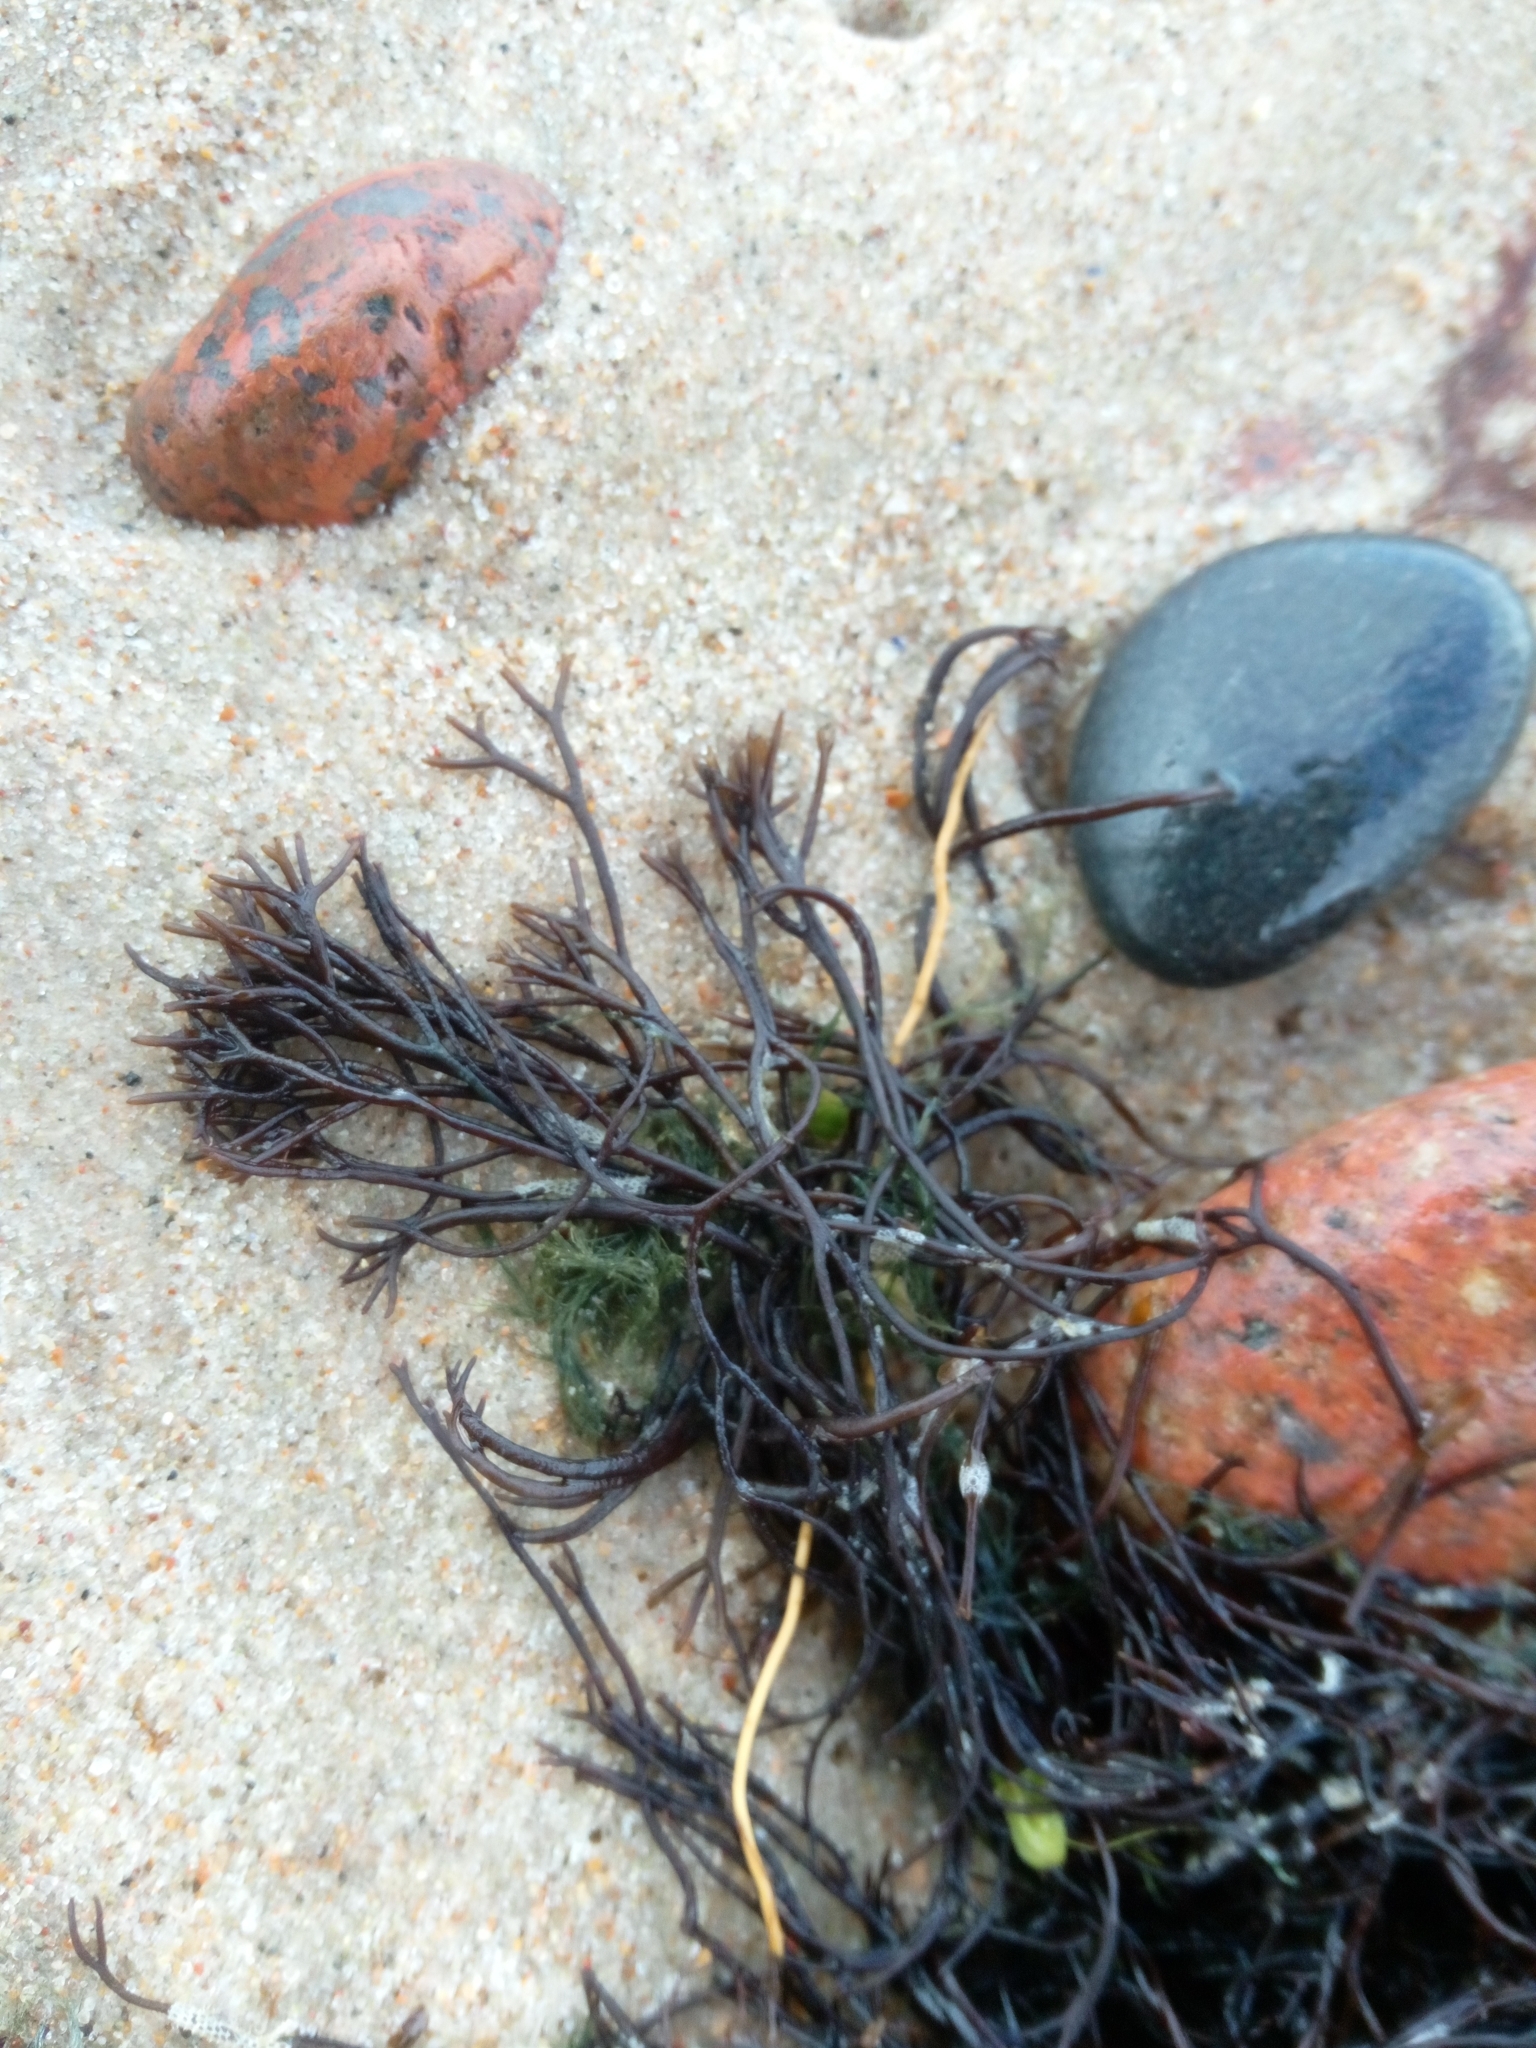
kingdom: Plantae
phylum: Rhodophyta
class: Florideophyceae
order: Gigartinales
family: Furcellariaceae
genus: Furcellaria
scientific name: Furcellaria lumbricalis
